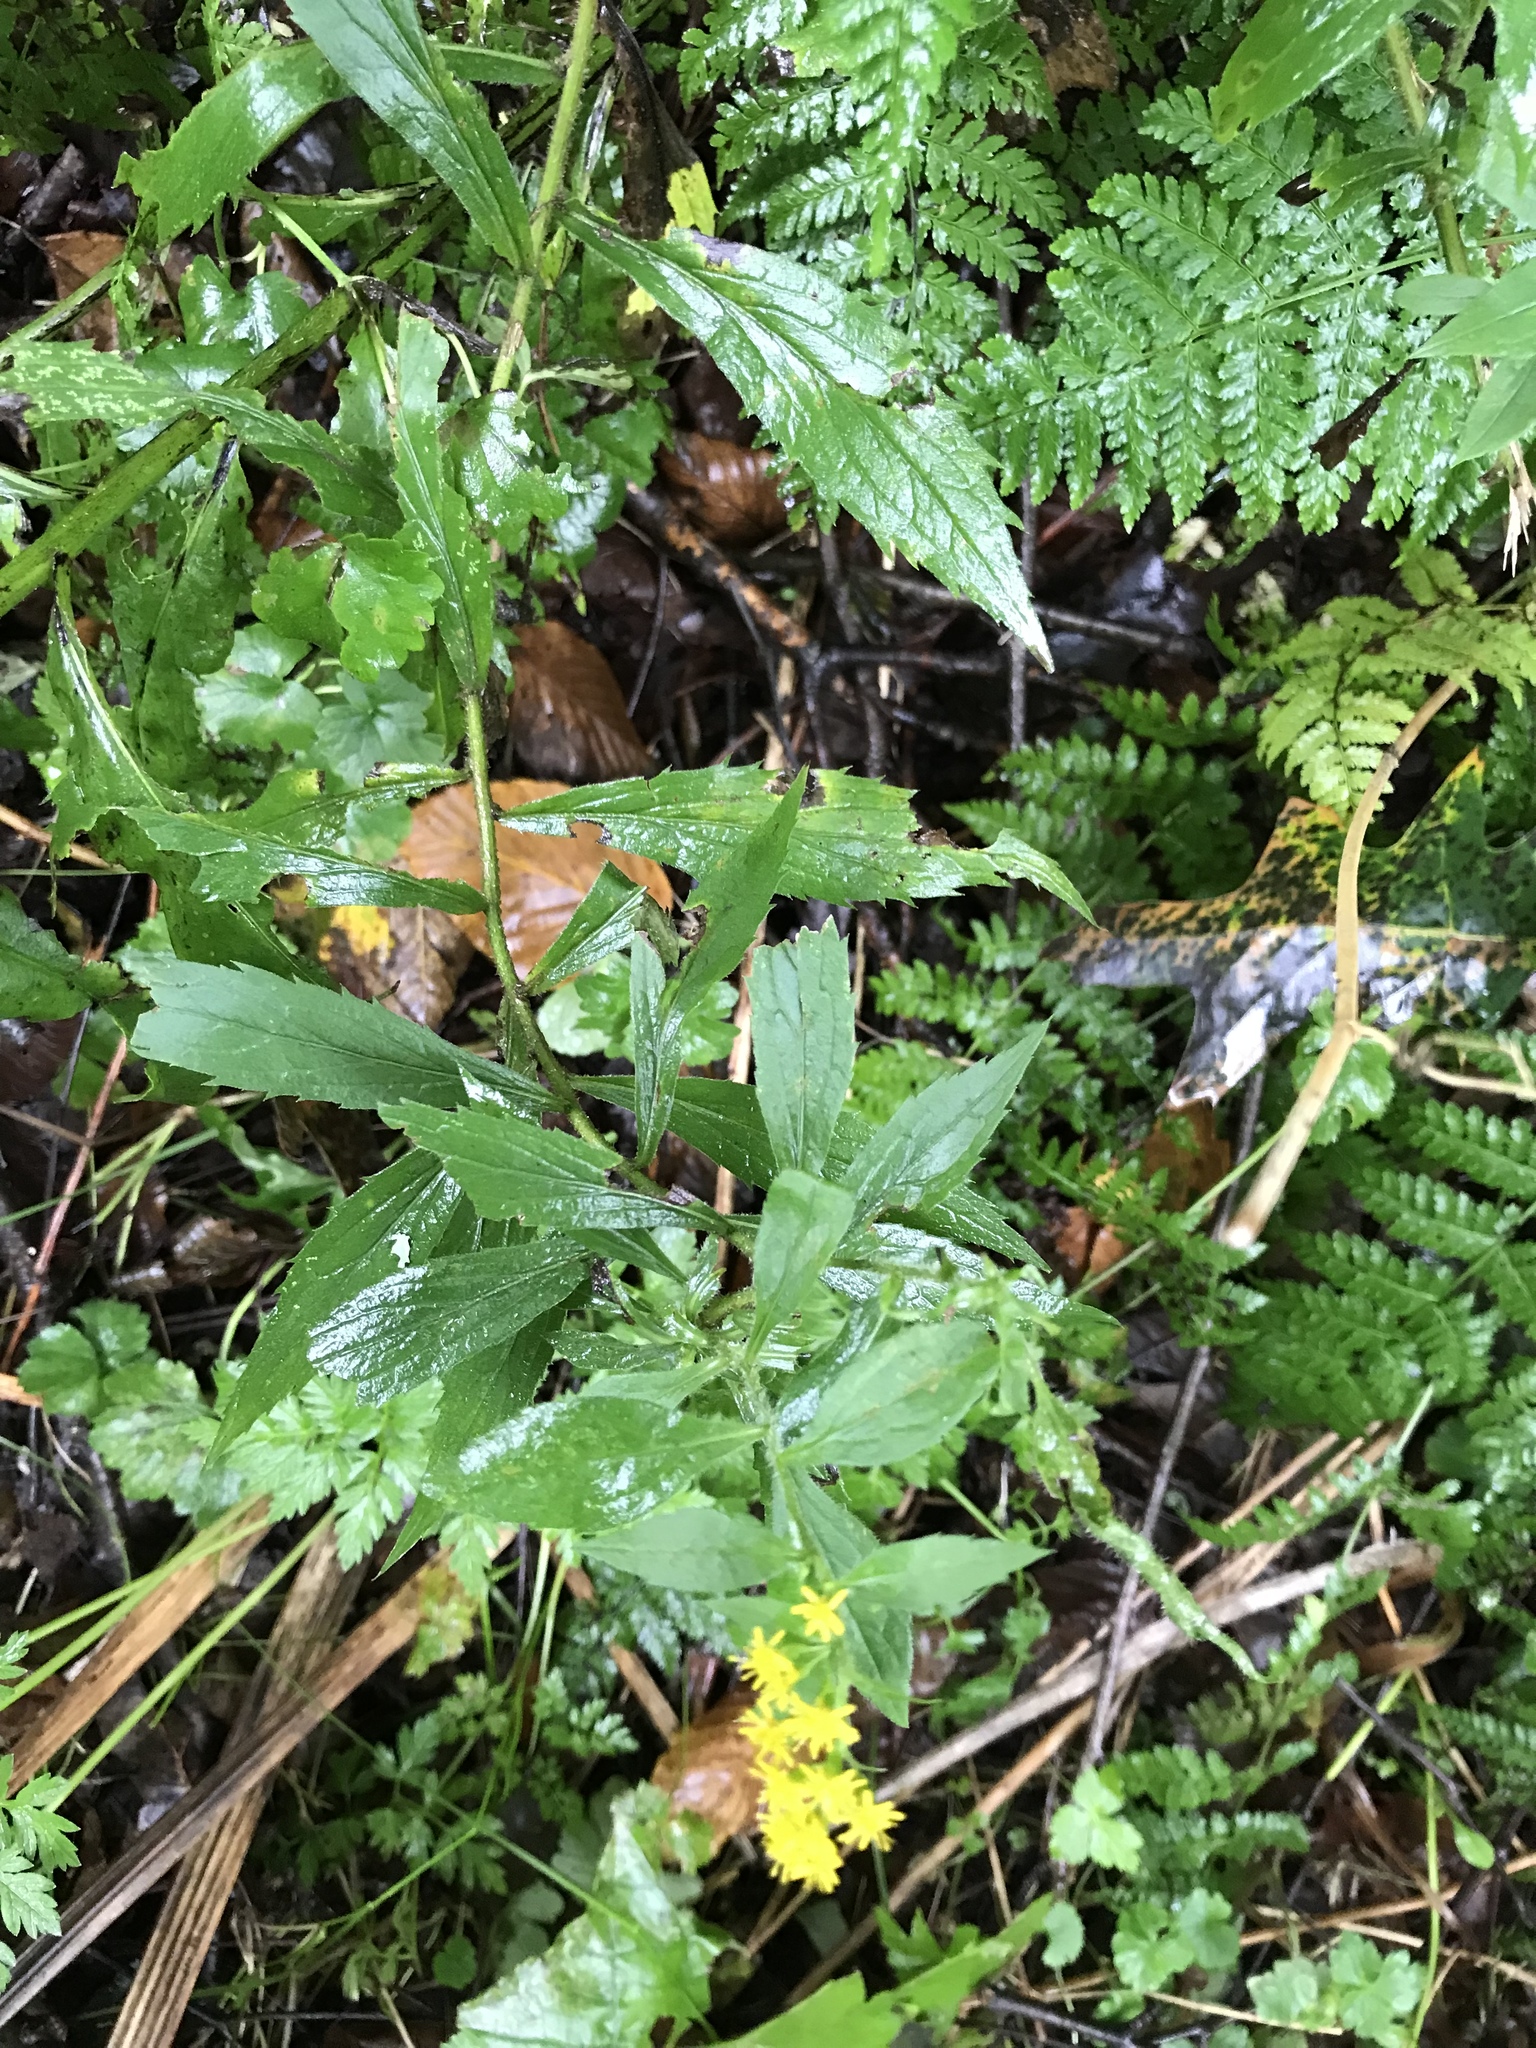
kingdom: Plantae
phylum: Tracheophyta
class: Magnoliopsida
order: Asterales
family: Asteraceae
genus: Solidago
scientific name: Solidago rugosa
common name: Rough-stemmed goldenrod
